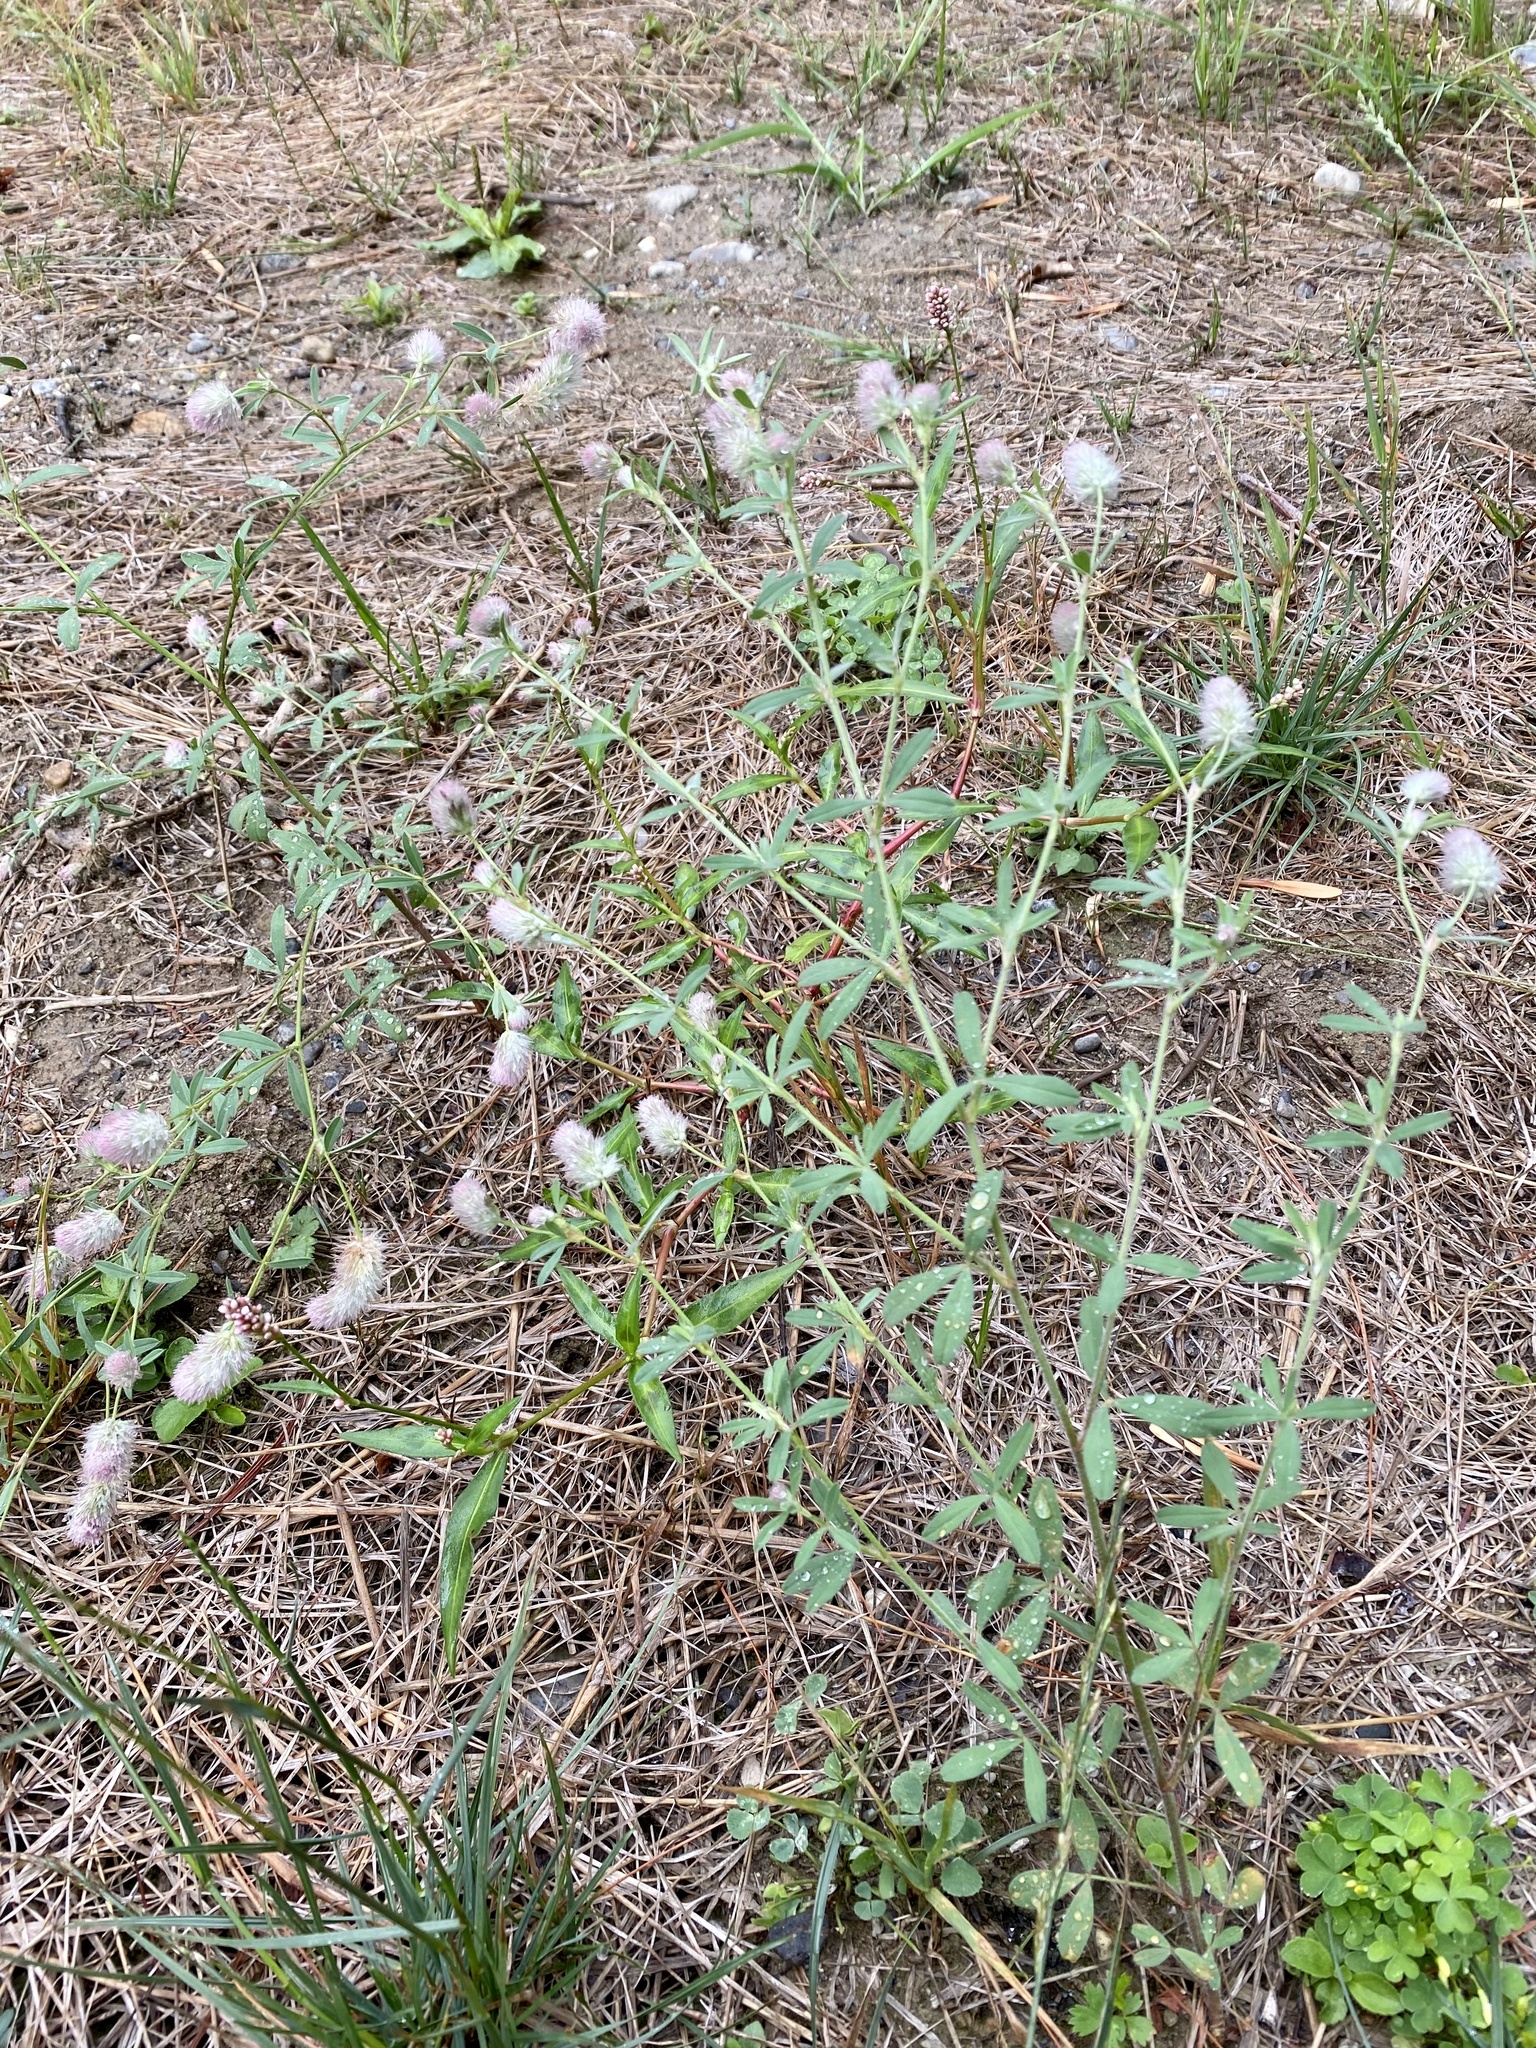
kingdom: Plantae
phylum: Tracheophyta
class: Magnoliopsida
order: Fabales
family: Fabaceae
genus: Trifolium
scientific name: Trifolium arvense
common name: Hare's-foot clover
